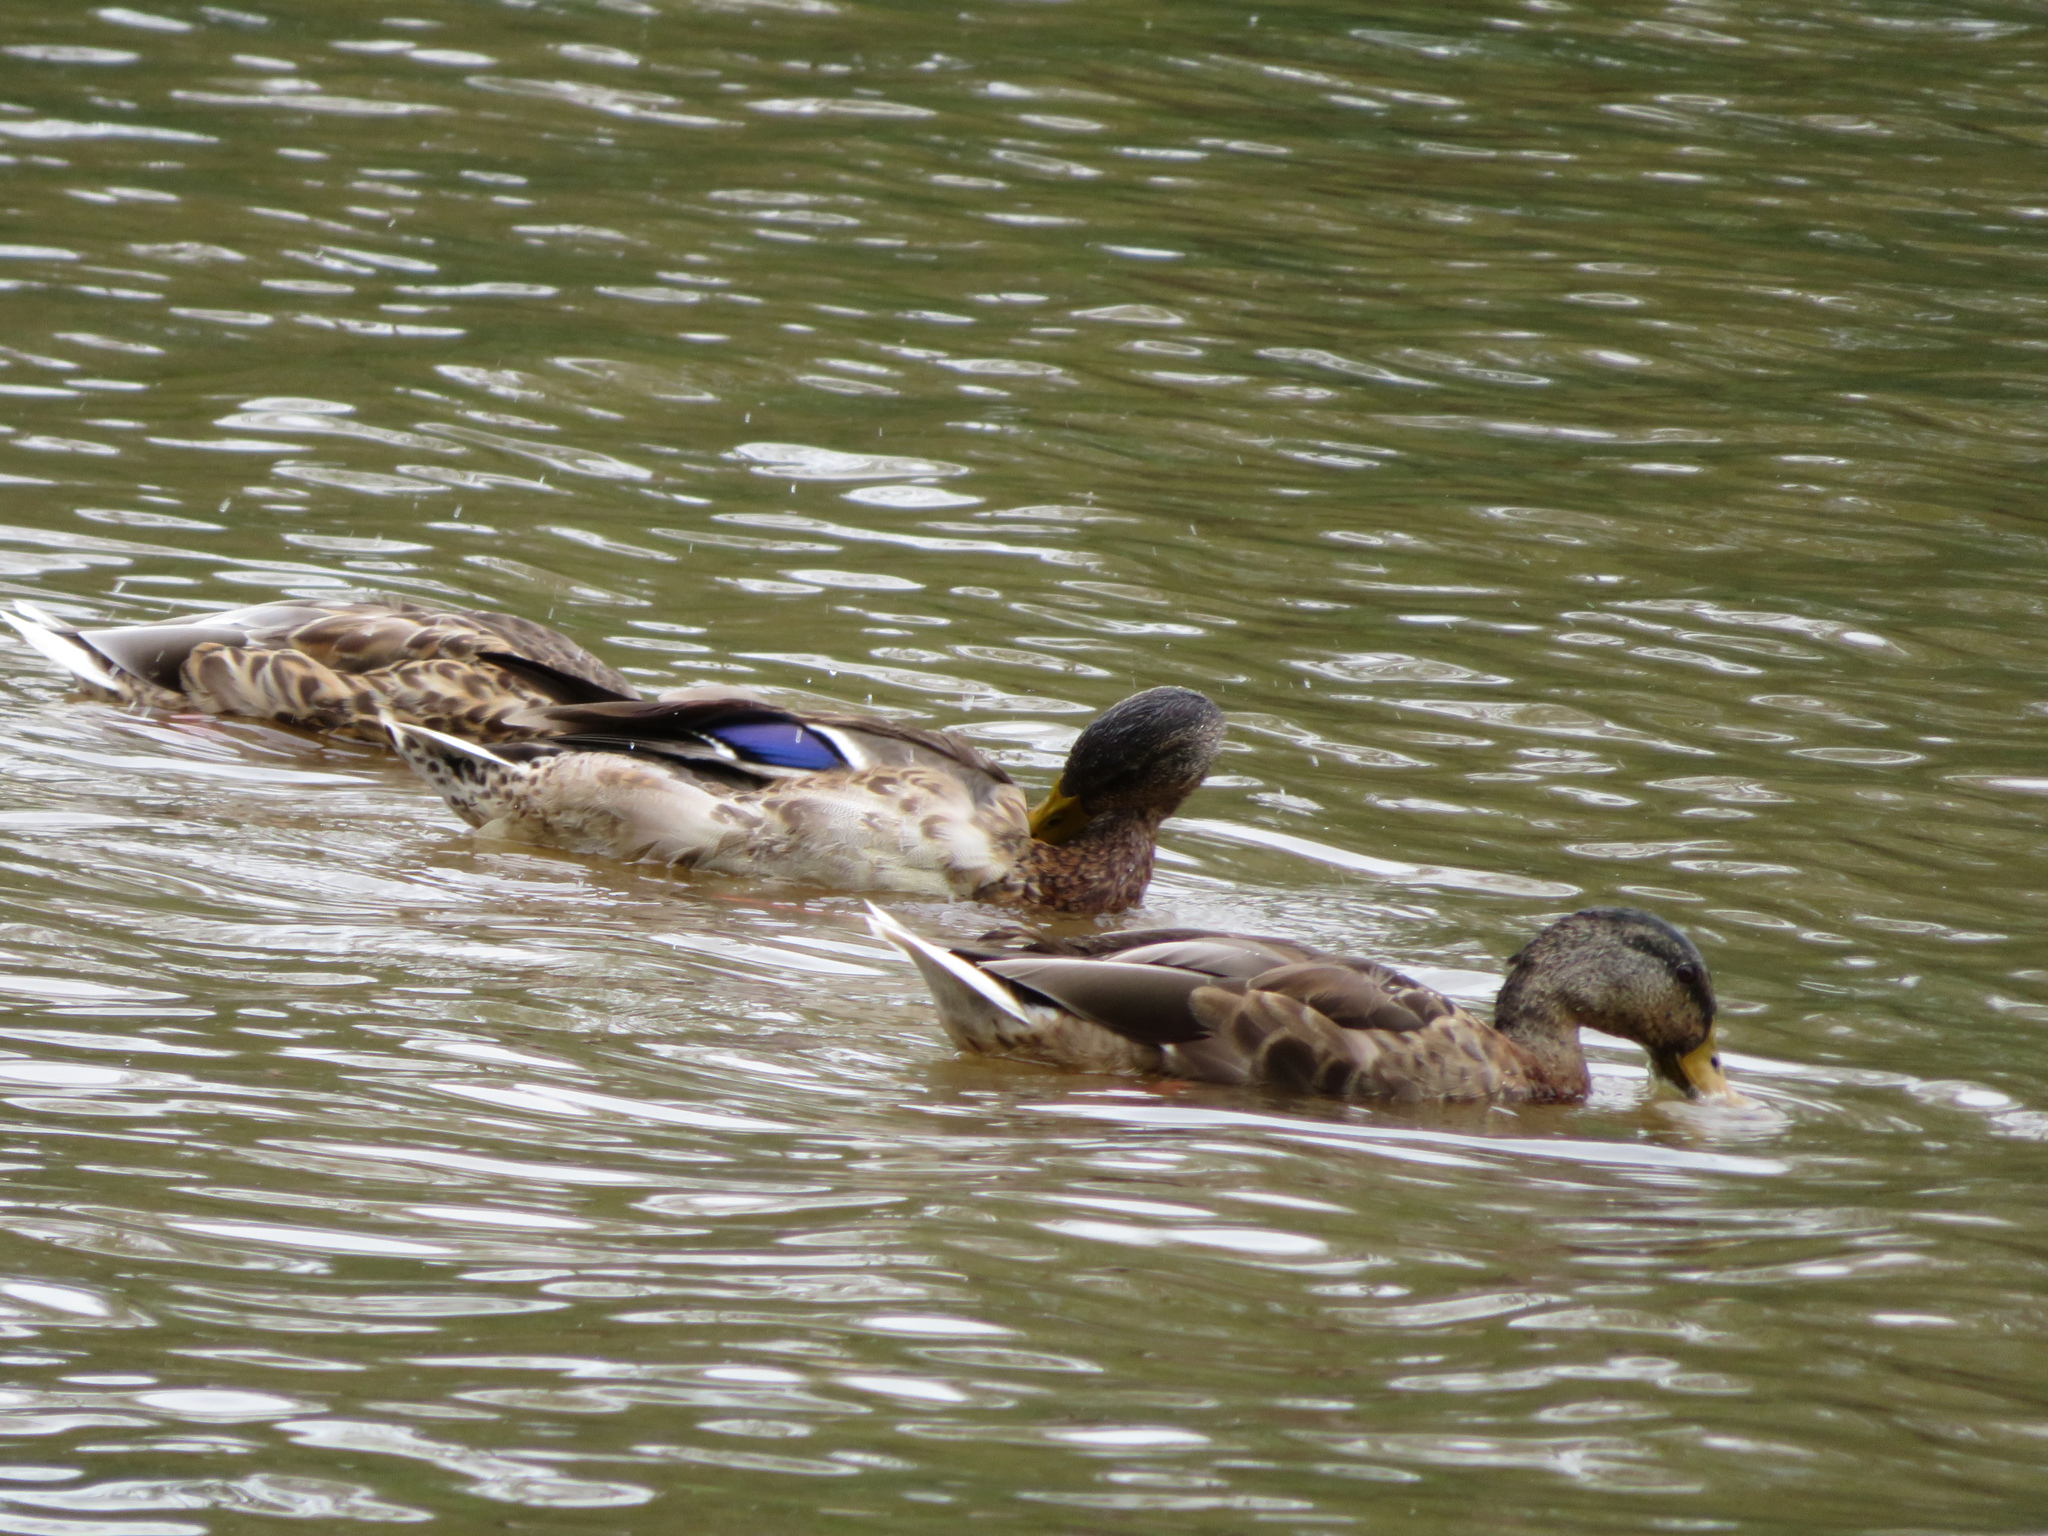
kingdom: Animalia
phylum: Chordata
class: Aves
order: Anseriformes
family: Anatidae
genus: Anas
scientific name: Anas platyrhynchos
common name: Mallard
